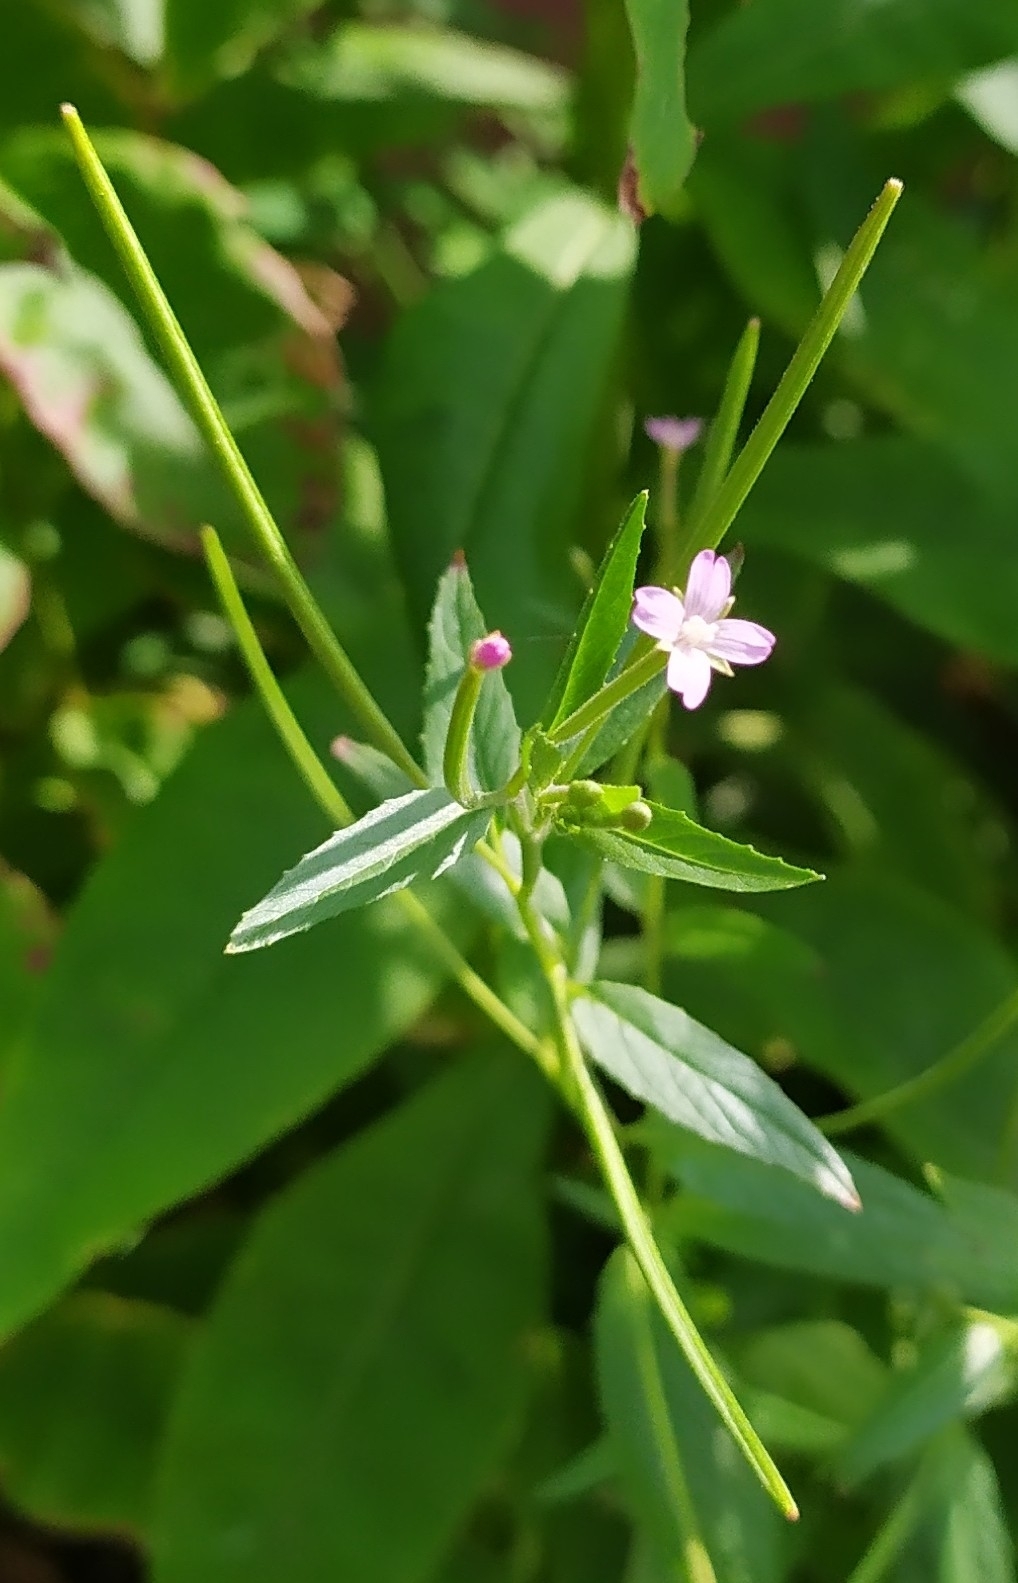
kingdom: Plantae
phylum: Tracheophyta
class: Magnoliopsida
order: Myrtales
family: Onagraceae
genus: Epilobium
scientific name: Epilobium ciliatum
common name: American willowherb
